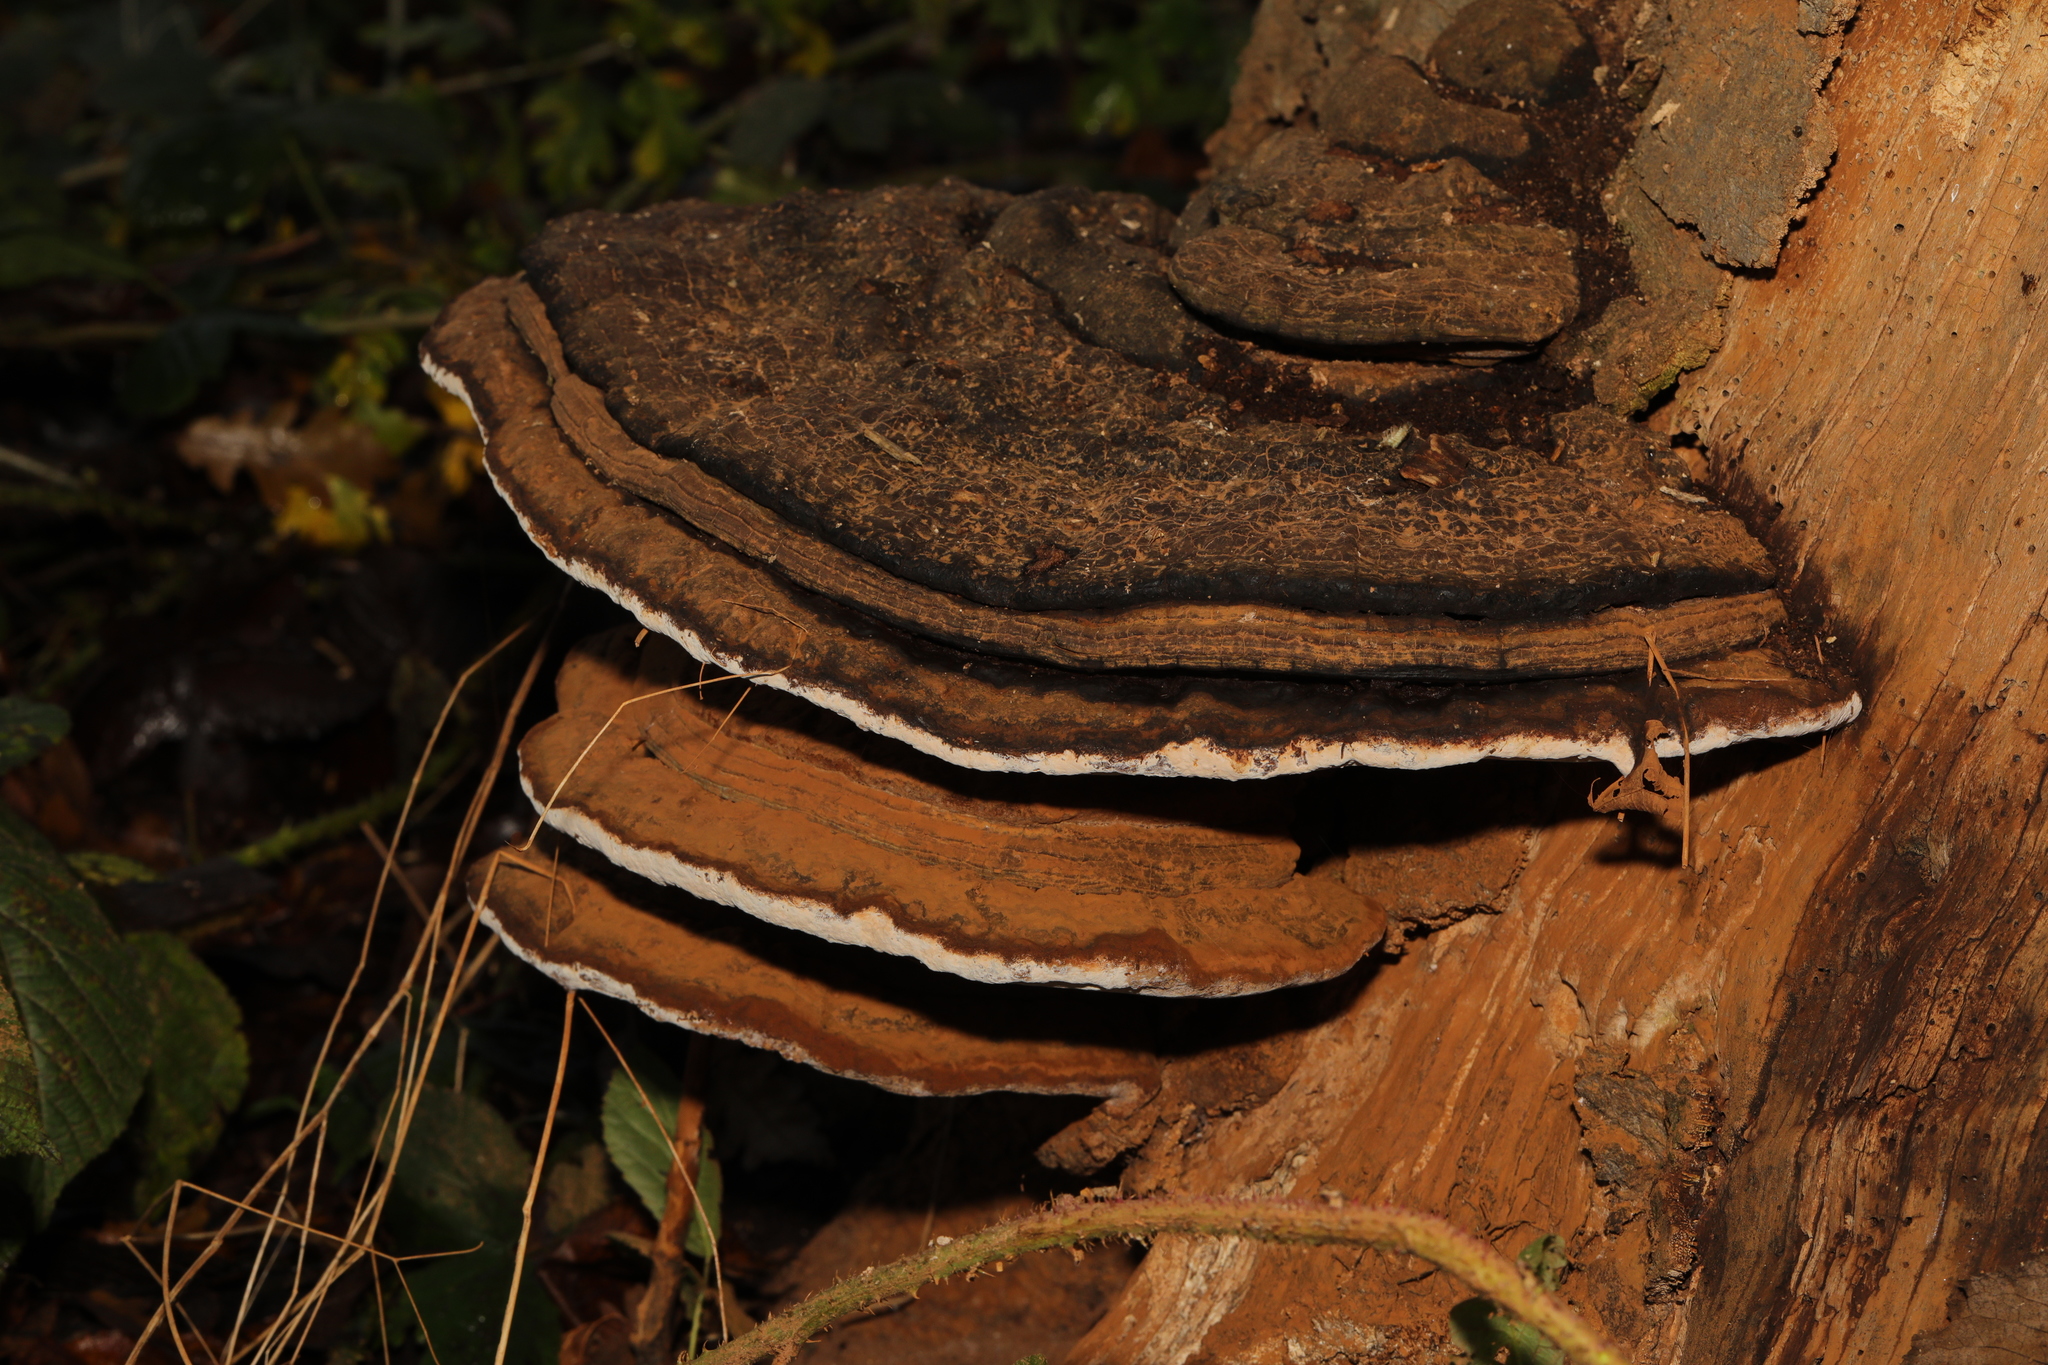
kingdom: Fungi
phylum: Basidiomycota
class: Agaricomycetes
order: Polyporales
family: Polyporaceae
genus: Ganoderma
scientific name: Ganoderma applanatum
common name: Artist's bracket
